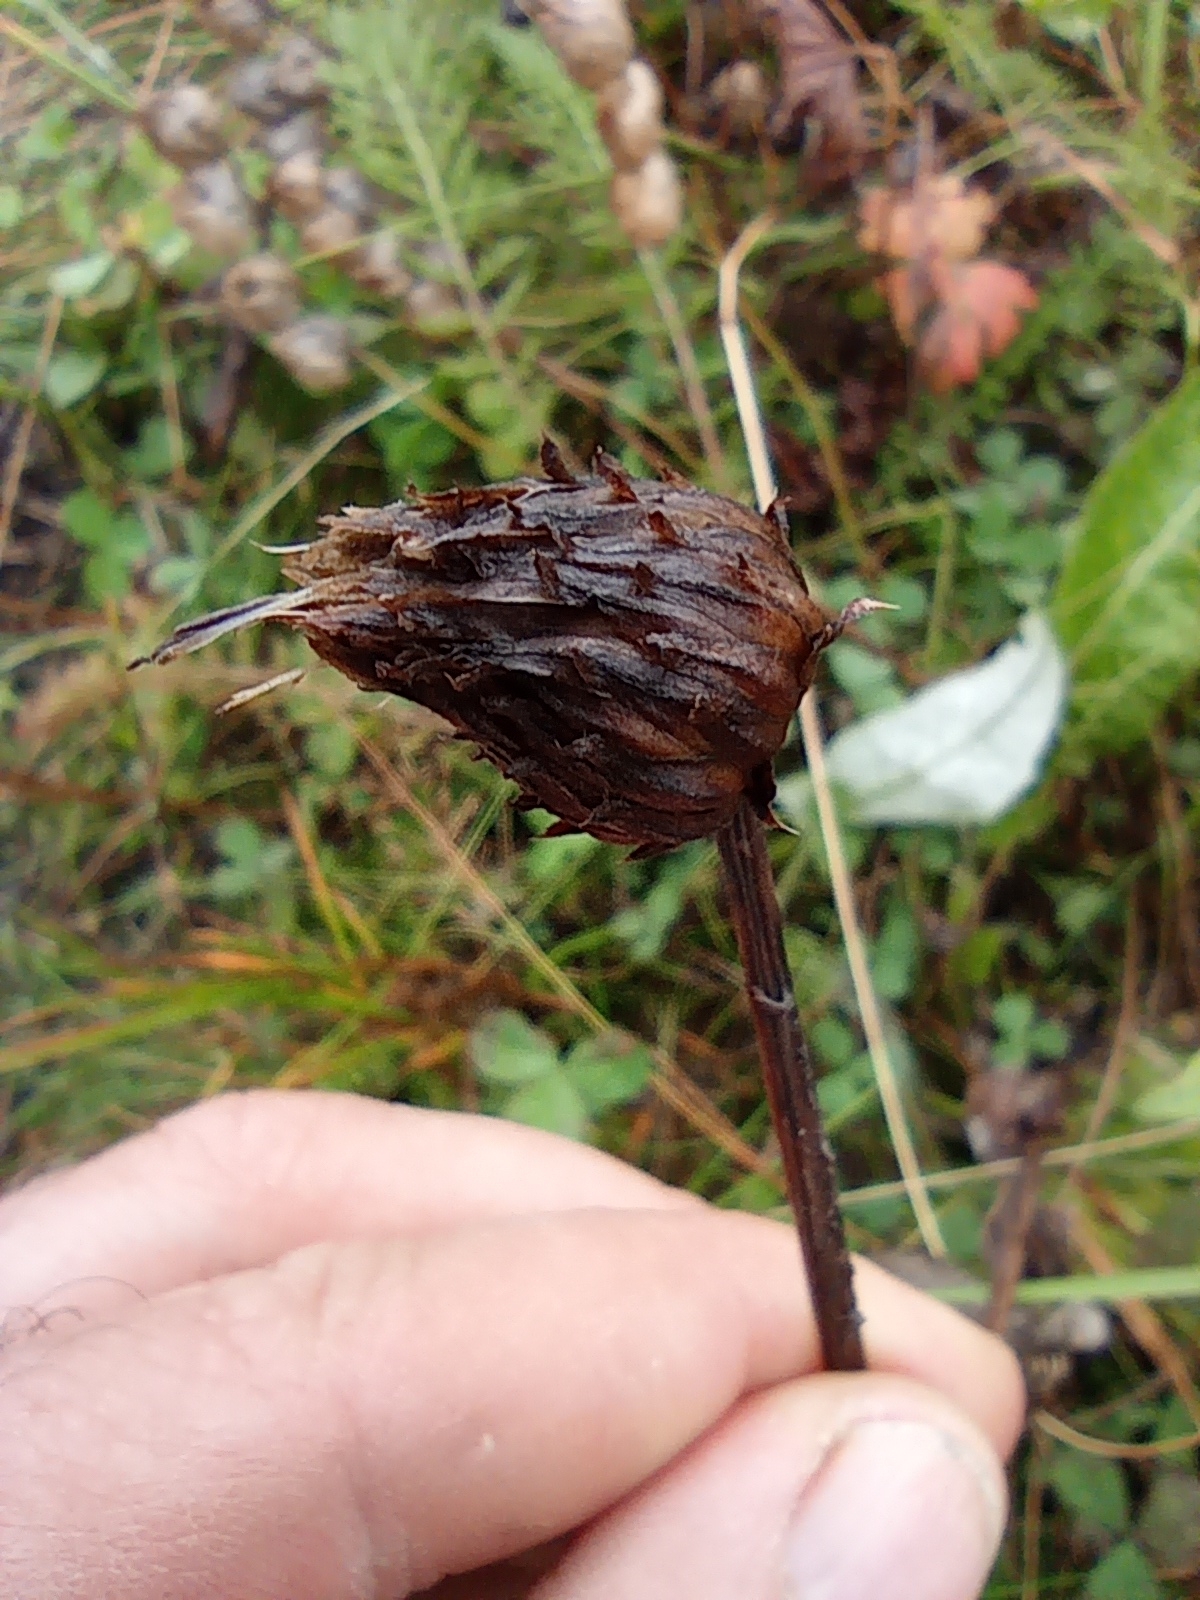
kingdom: Plantae
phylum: Tracheophyta
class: Magnoliopsida
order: Asterales
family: Asteraceae
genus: Cirsium
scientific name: Cirsium heterophyllum
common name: Melancholy thistle
